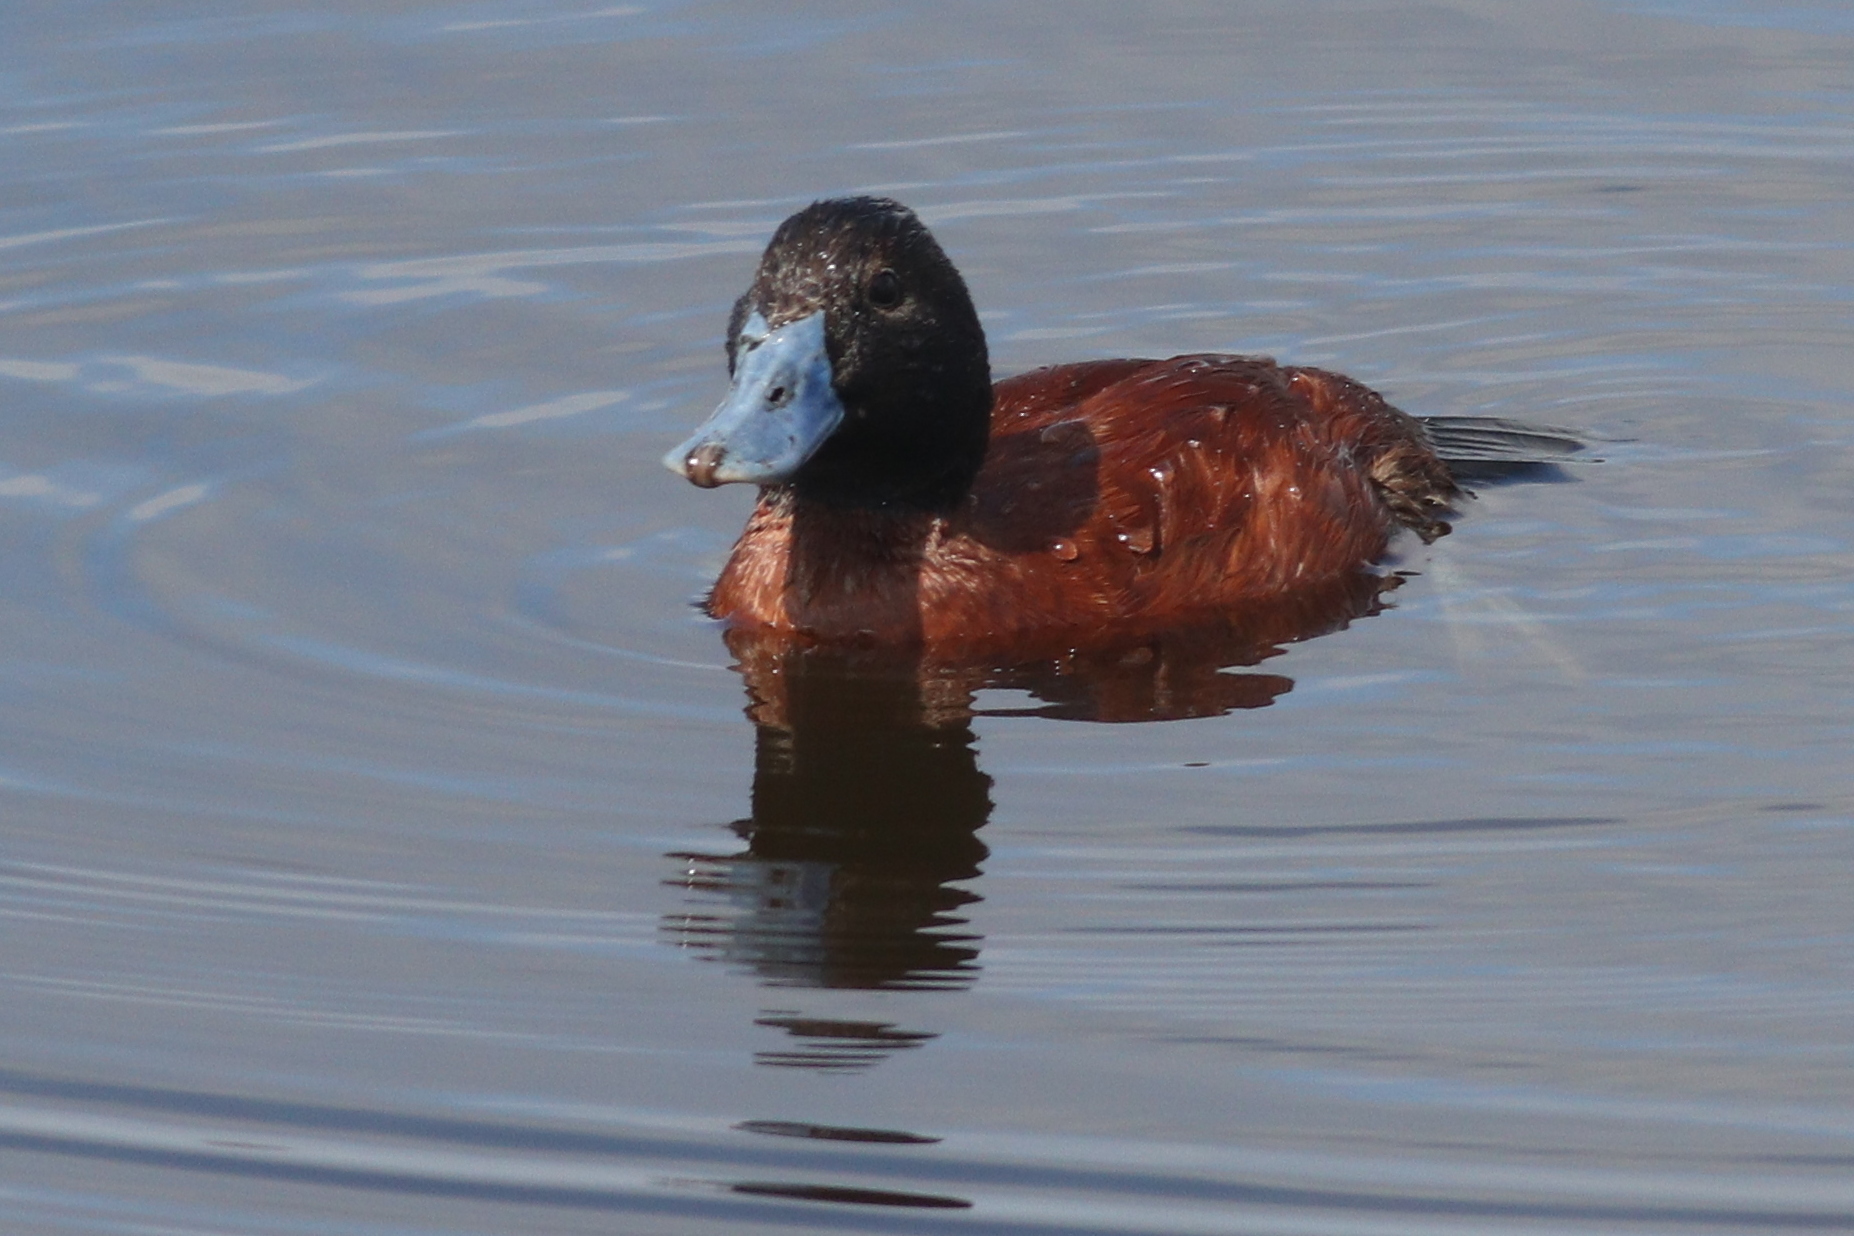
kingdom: Animalia
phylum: Chordata
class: Aves
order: Anseriformes
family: Anatidae
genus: Oxyura
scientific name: Oxyura vittata
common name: Lake duck
